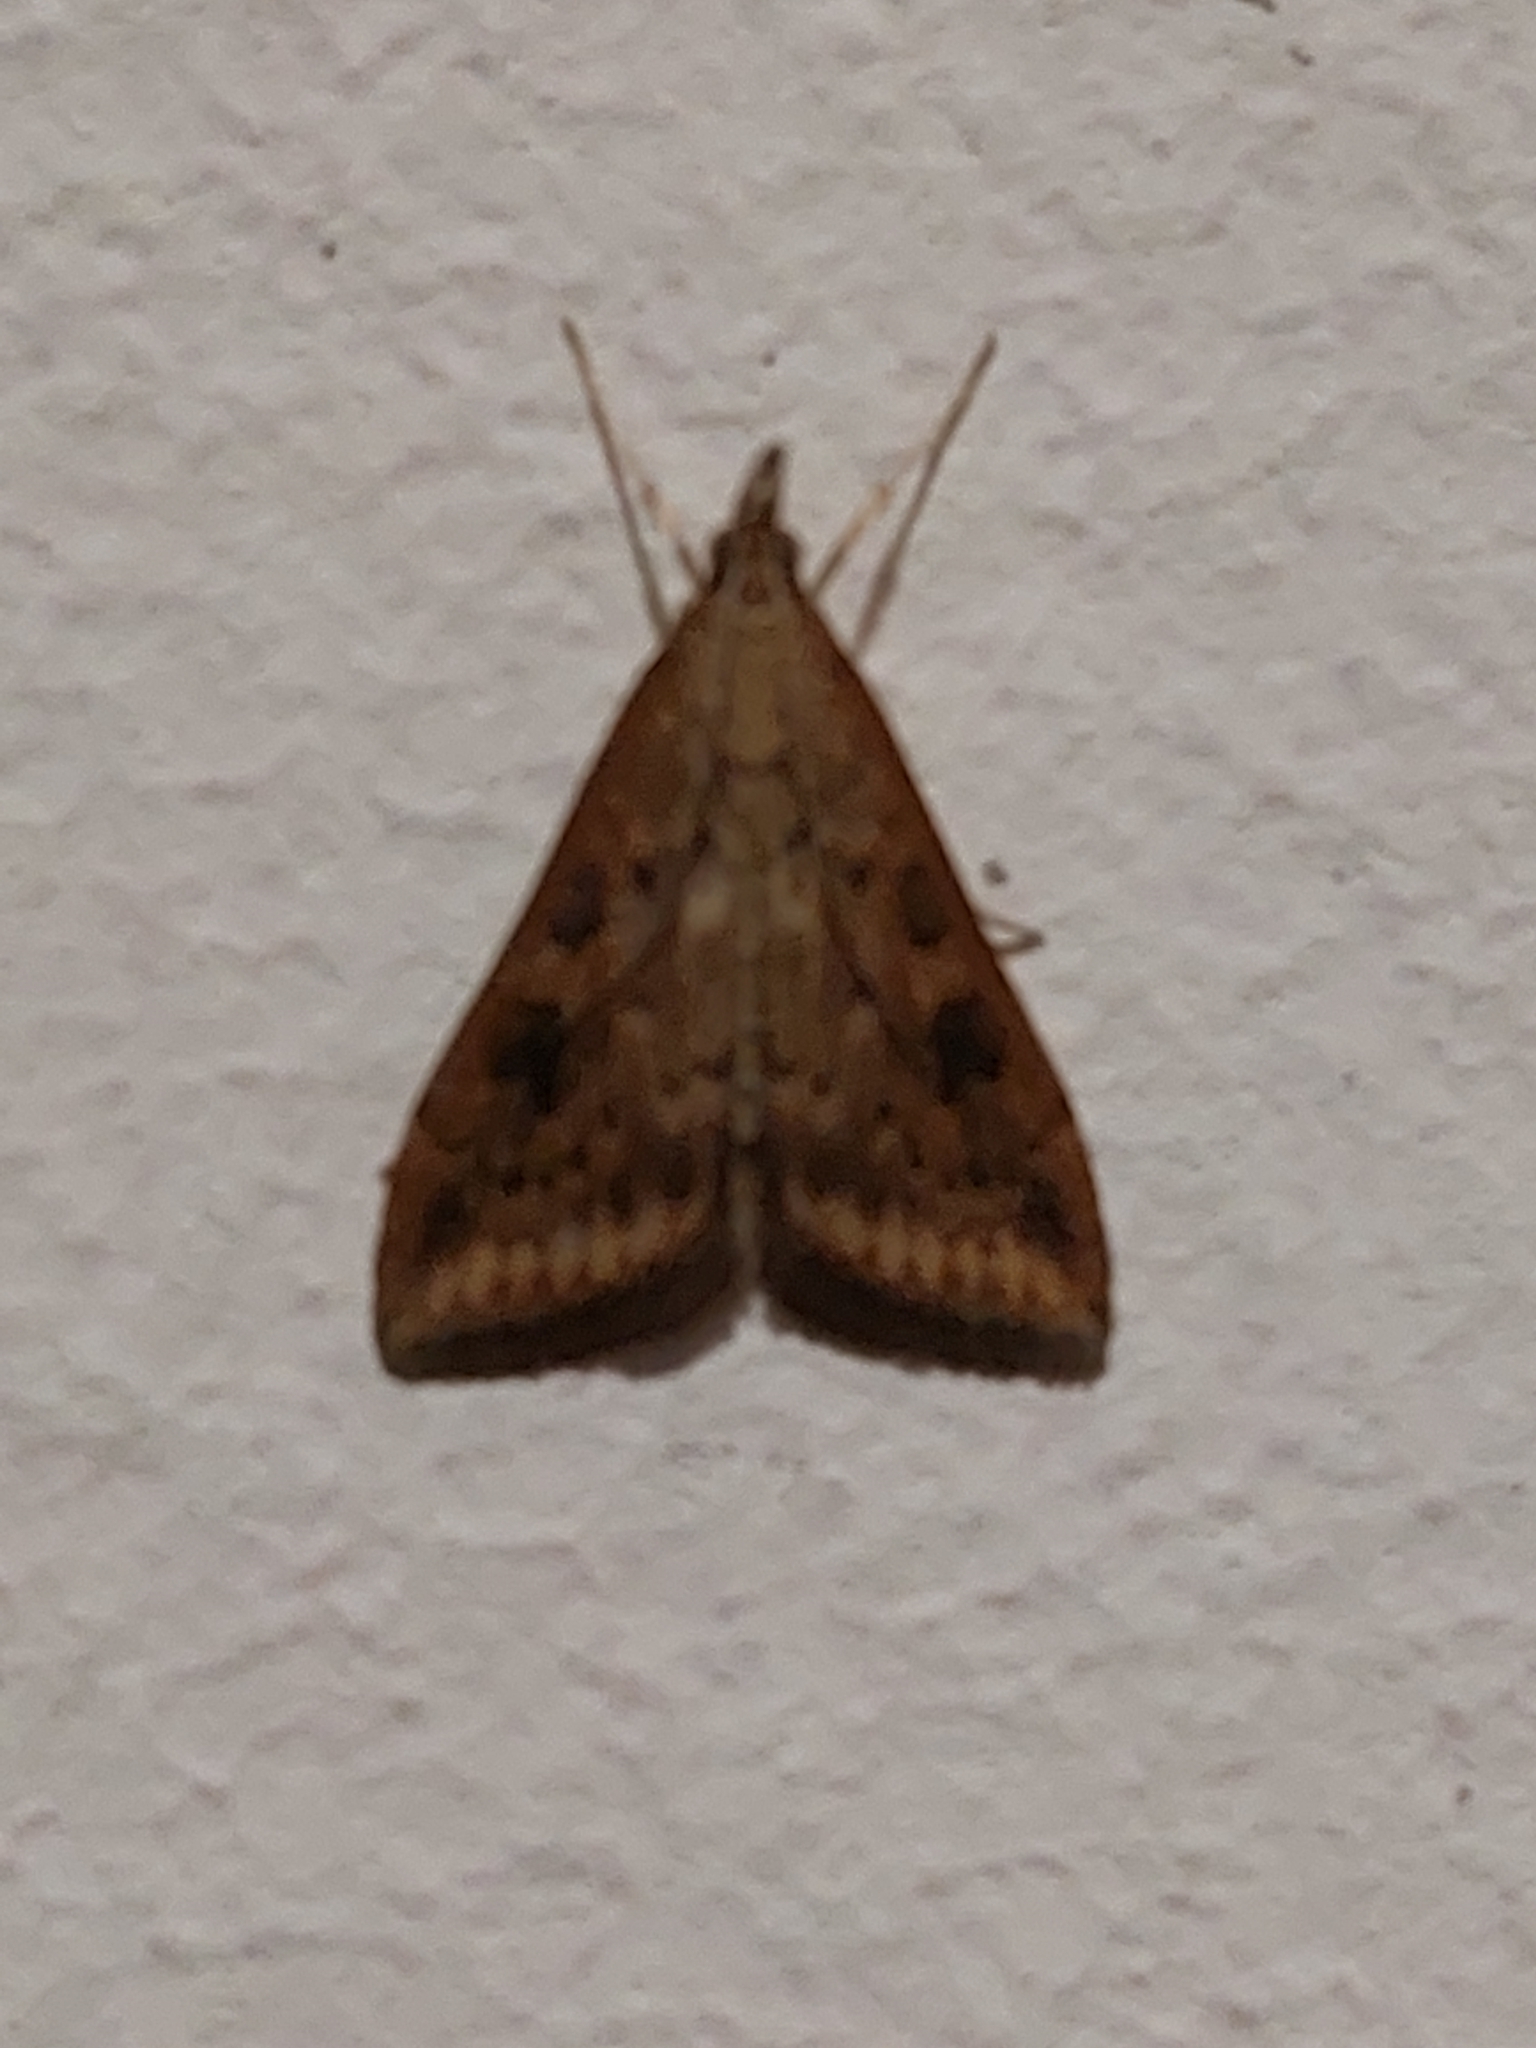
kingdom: Animalia
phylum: Arthropoda
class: Insecta
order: Lepidoptera
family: Crambidae
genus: Udea
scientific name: Udea ferrugalis
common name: Rusty dot
